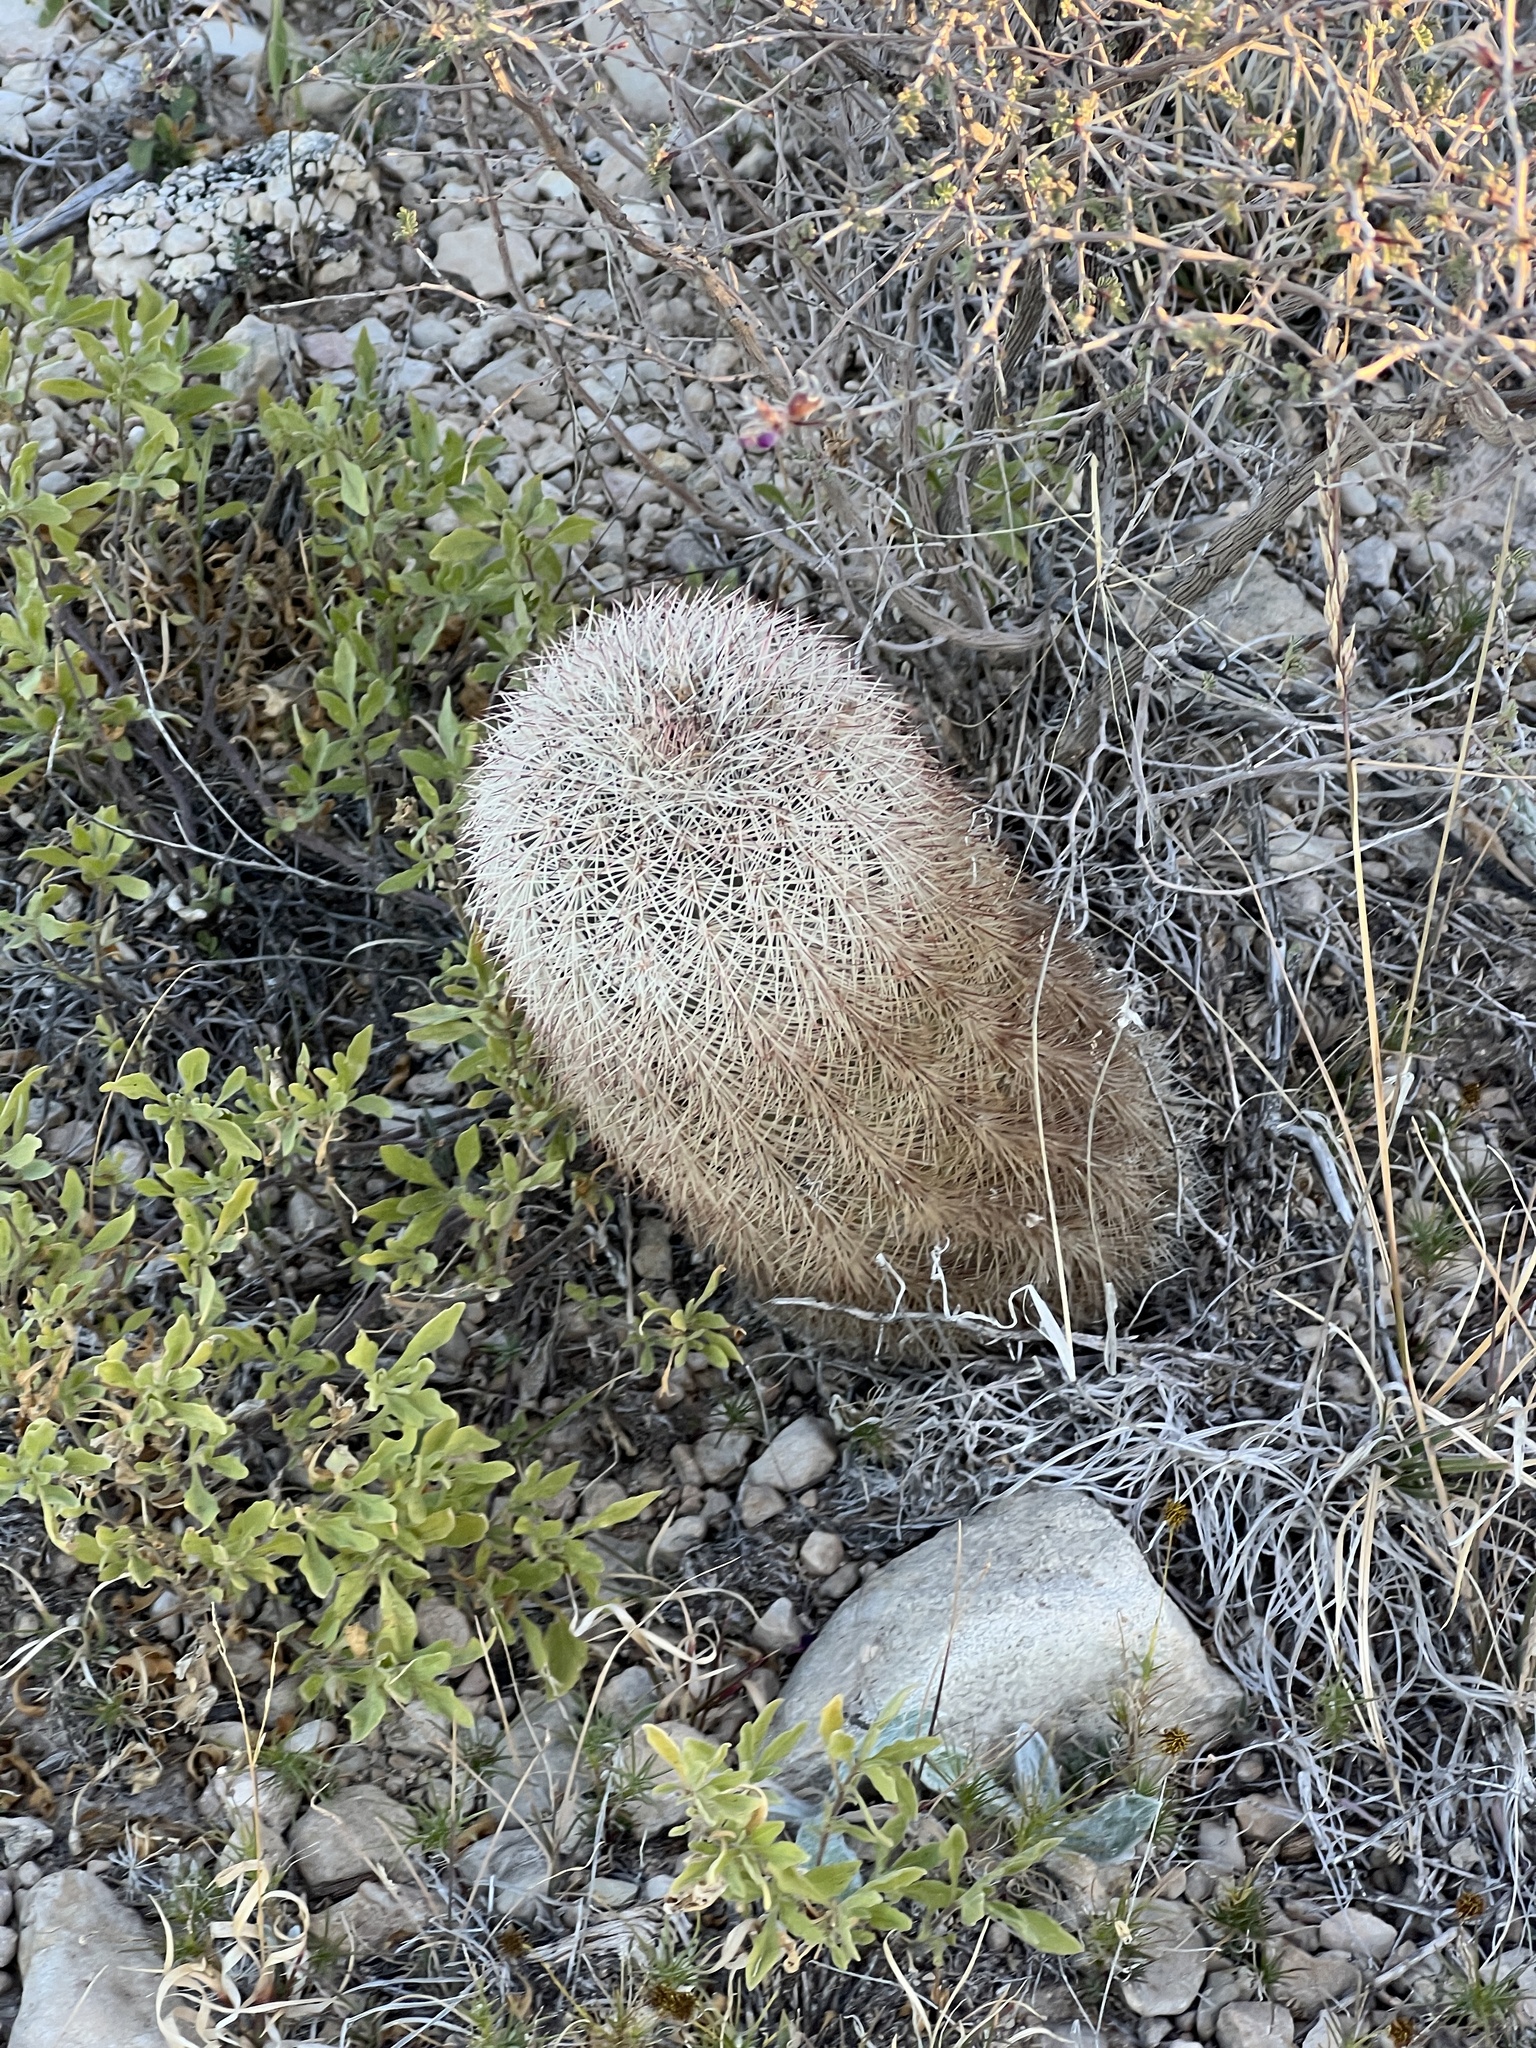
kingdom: Plantae
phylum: Tracheophyta
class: Magnoliopsida
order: Caryophyllales
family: Cactaceae
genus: Echinocereus
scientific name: Echinocereus dasyacanthus
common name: Spiny hedgehog cactus
